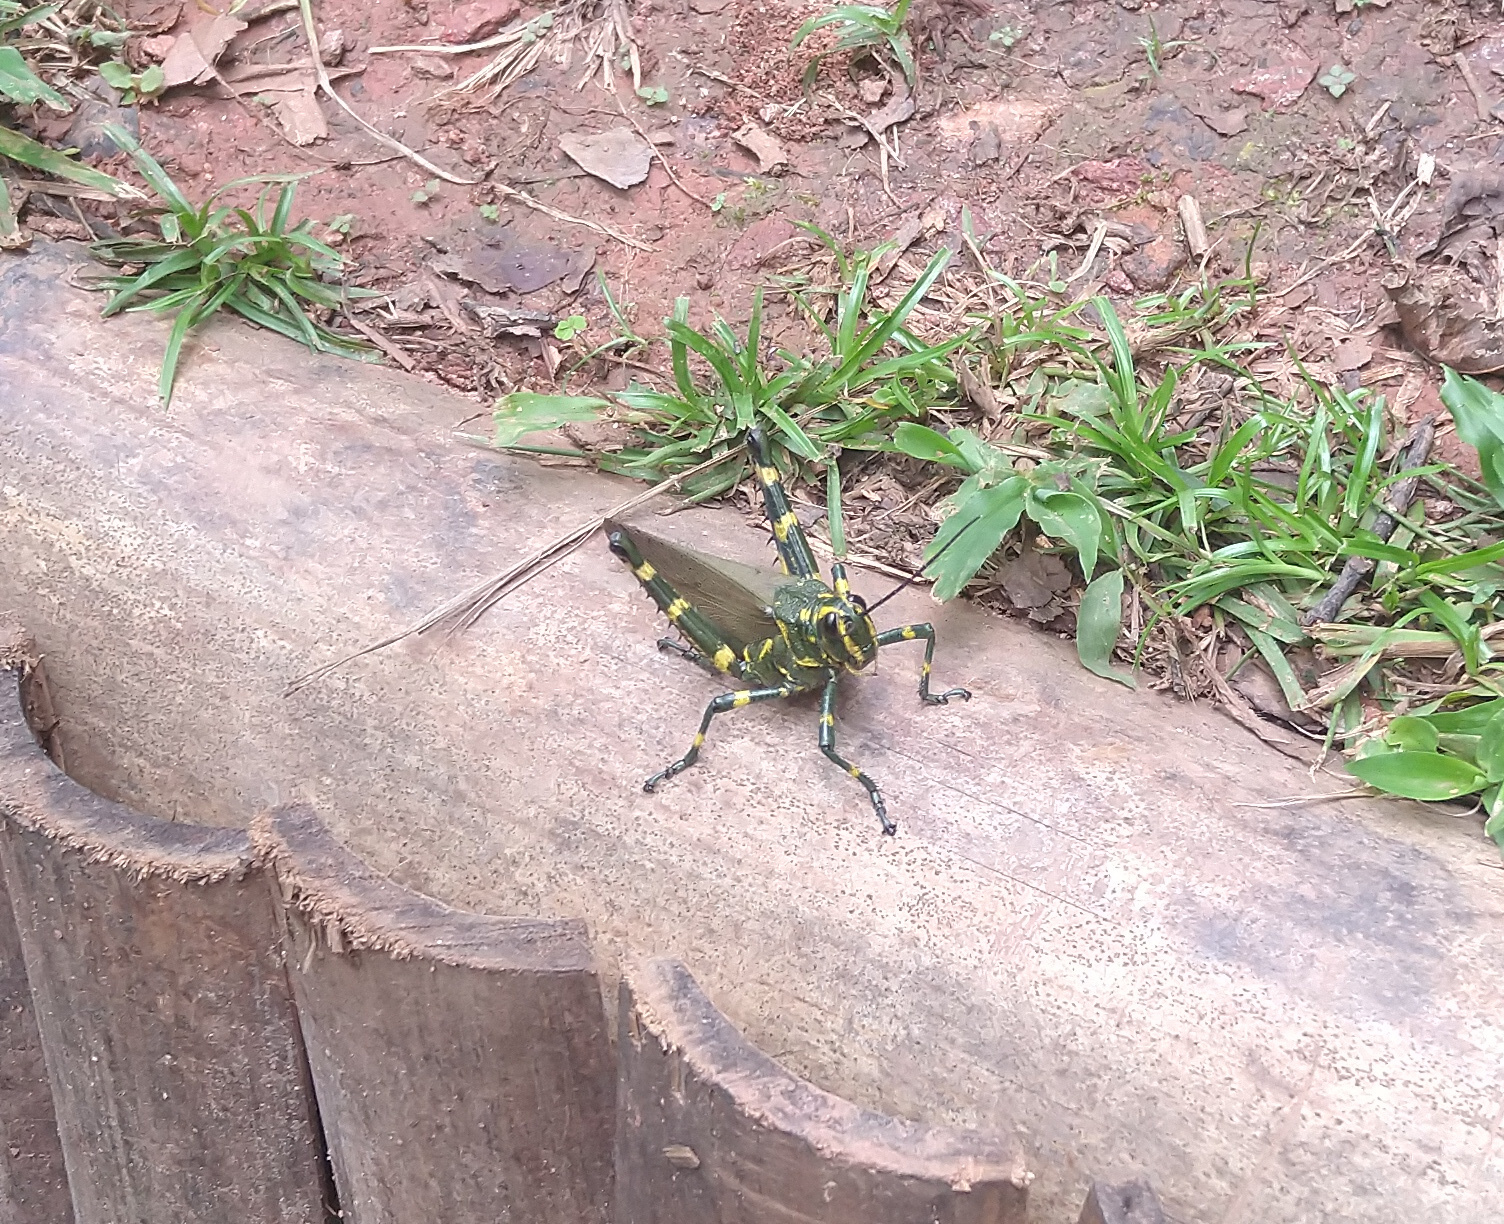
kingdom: Animalia
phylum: Arthropoda
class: Insecta
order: Orthoptera
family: Romaleidae
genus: Chromacris
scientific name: Chromacris speciosa
